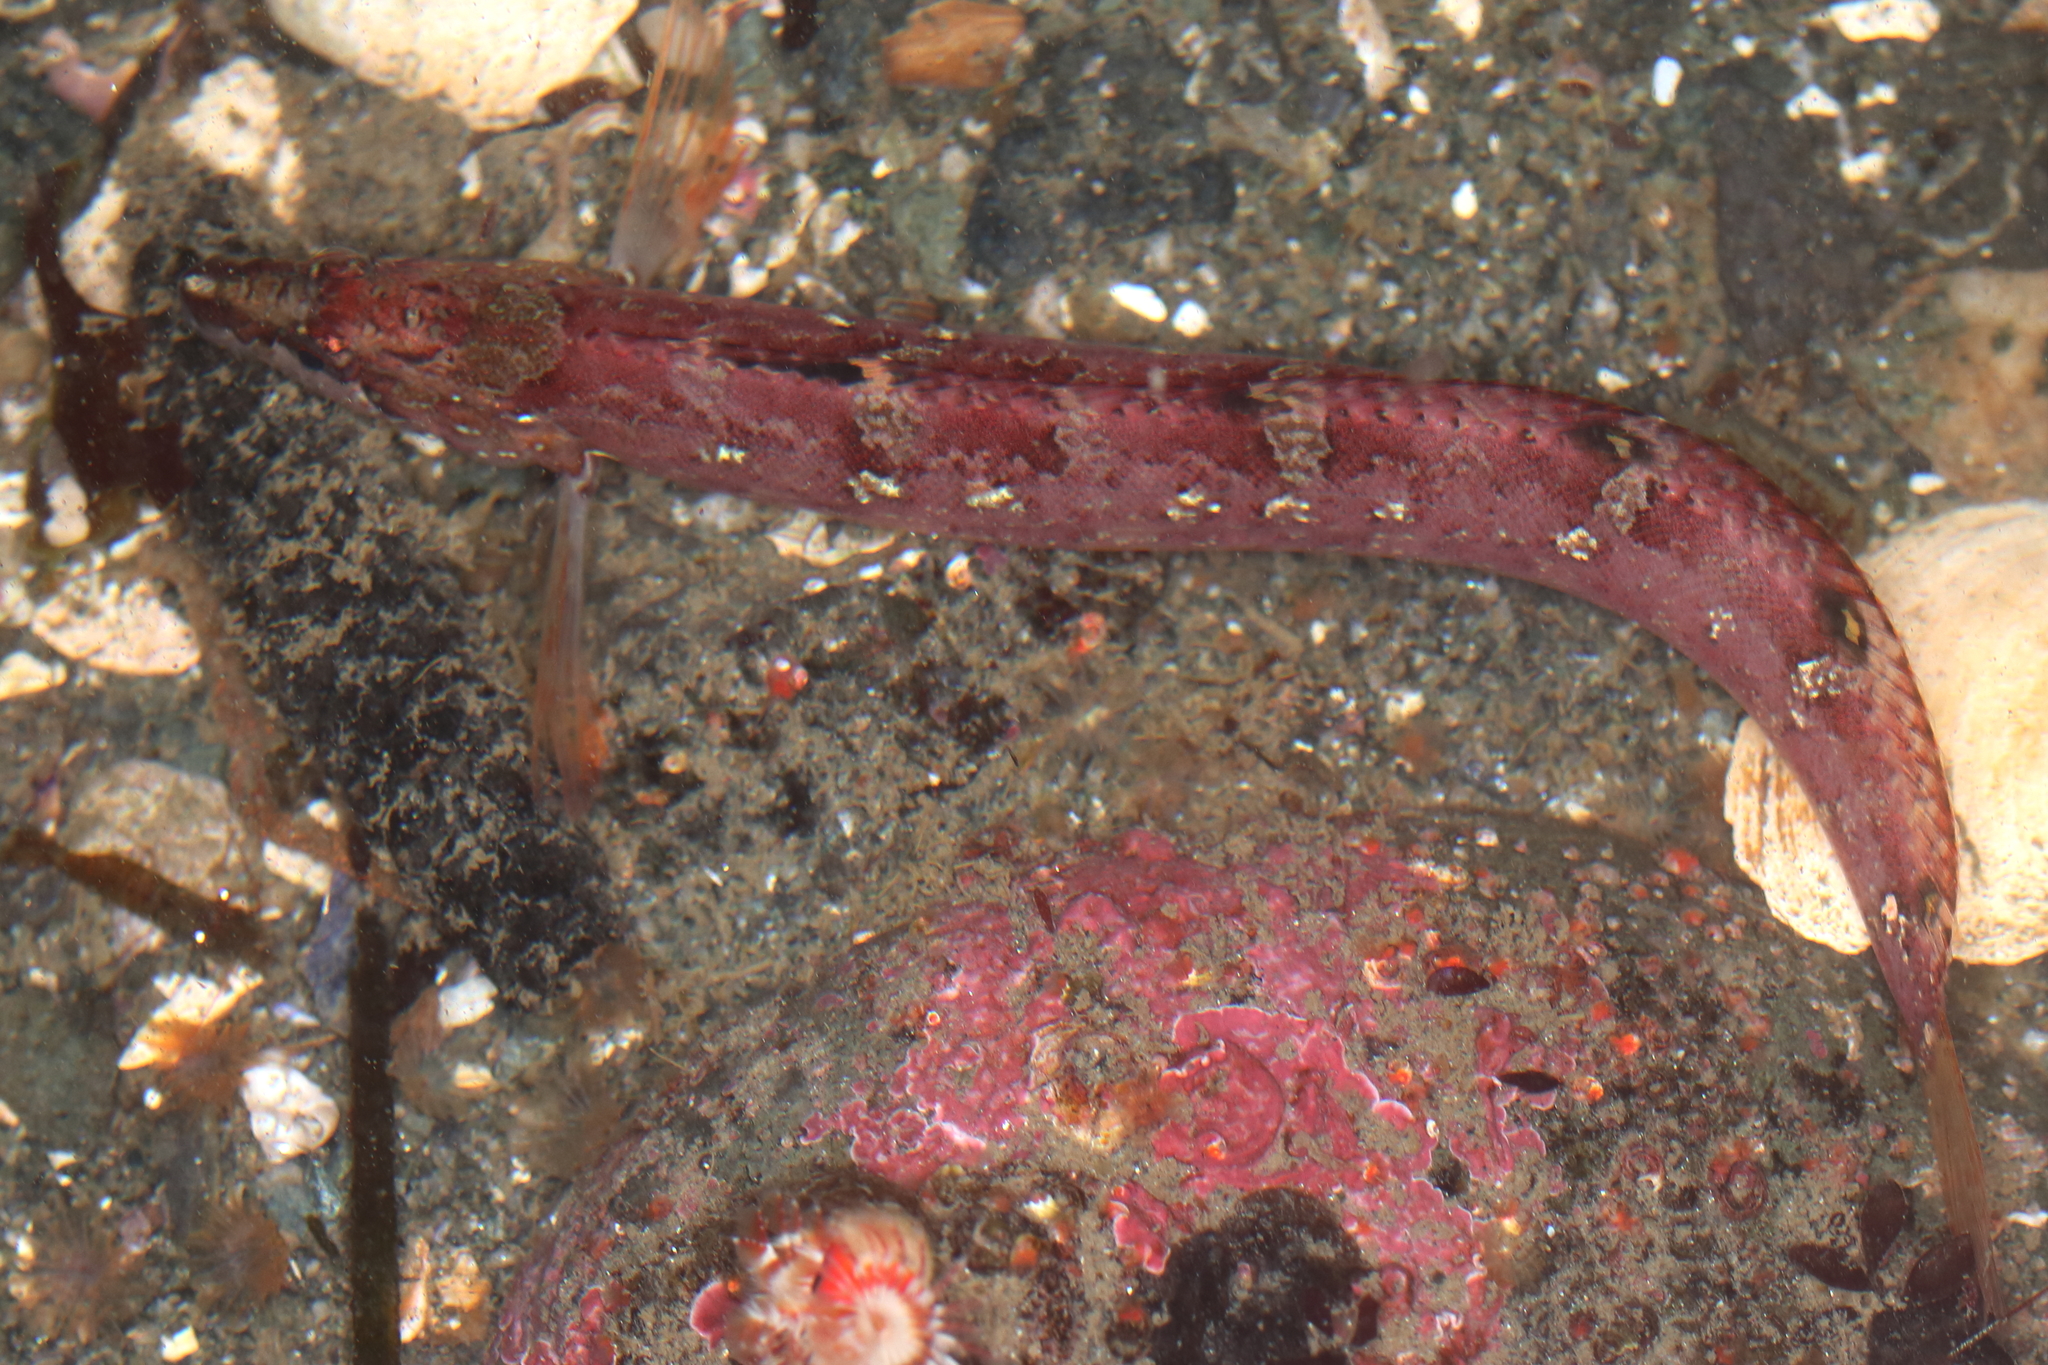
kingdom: Animalia
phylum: Chordata
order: Perciformes
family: Stichaeidae
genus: Stichaeus
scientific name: Stichaeus punctatus
